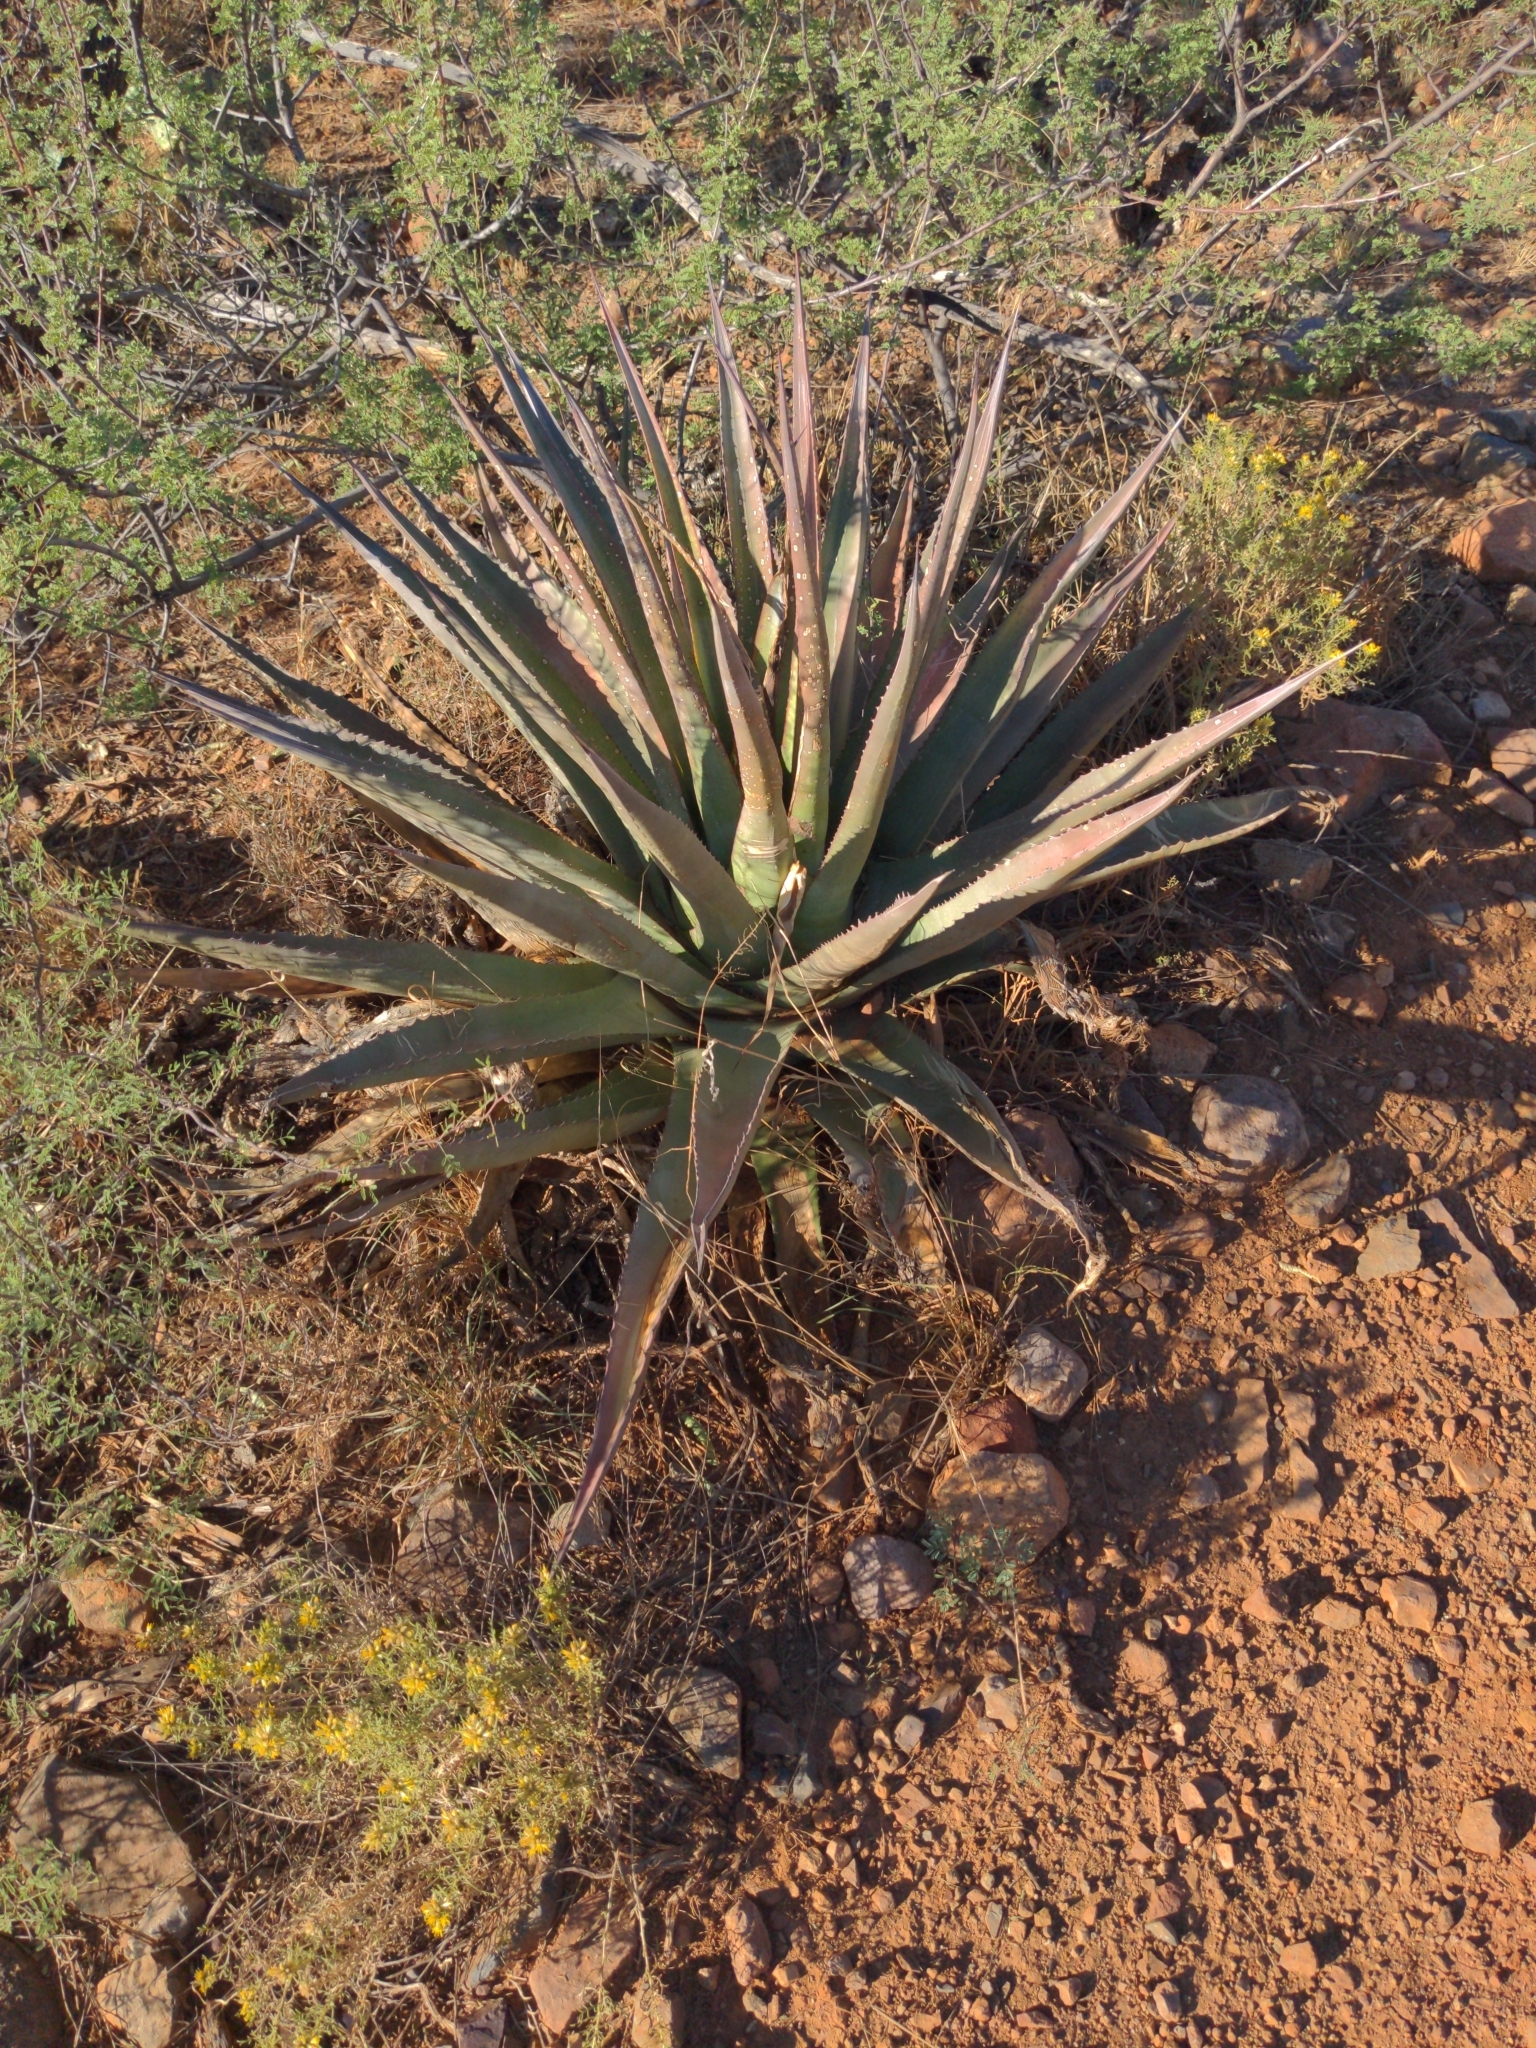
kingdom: Plantae
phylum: Tracheophyta
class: Liliopsida
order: Asparagales
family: Asparagaceae
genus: Agave
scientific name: Agave palmeri
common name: Palmer agave
